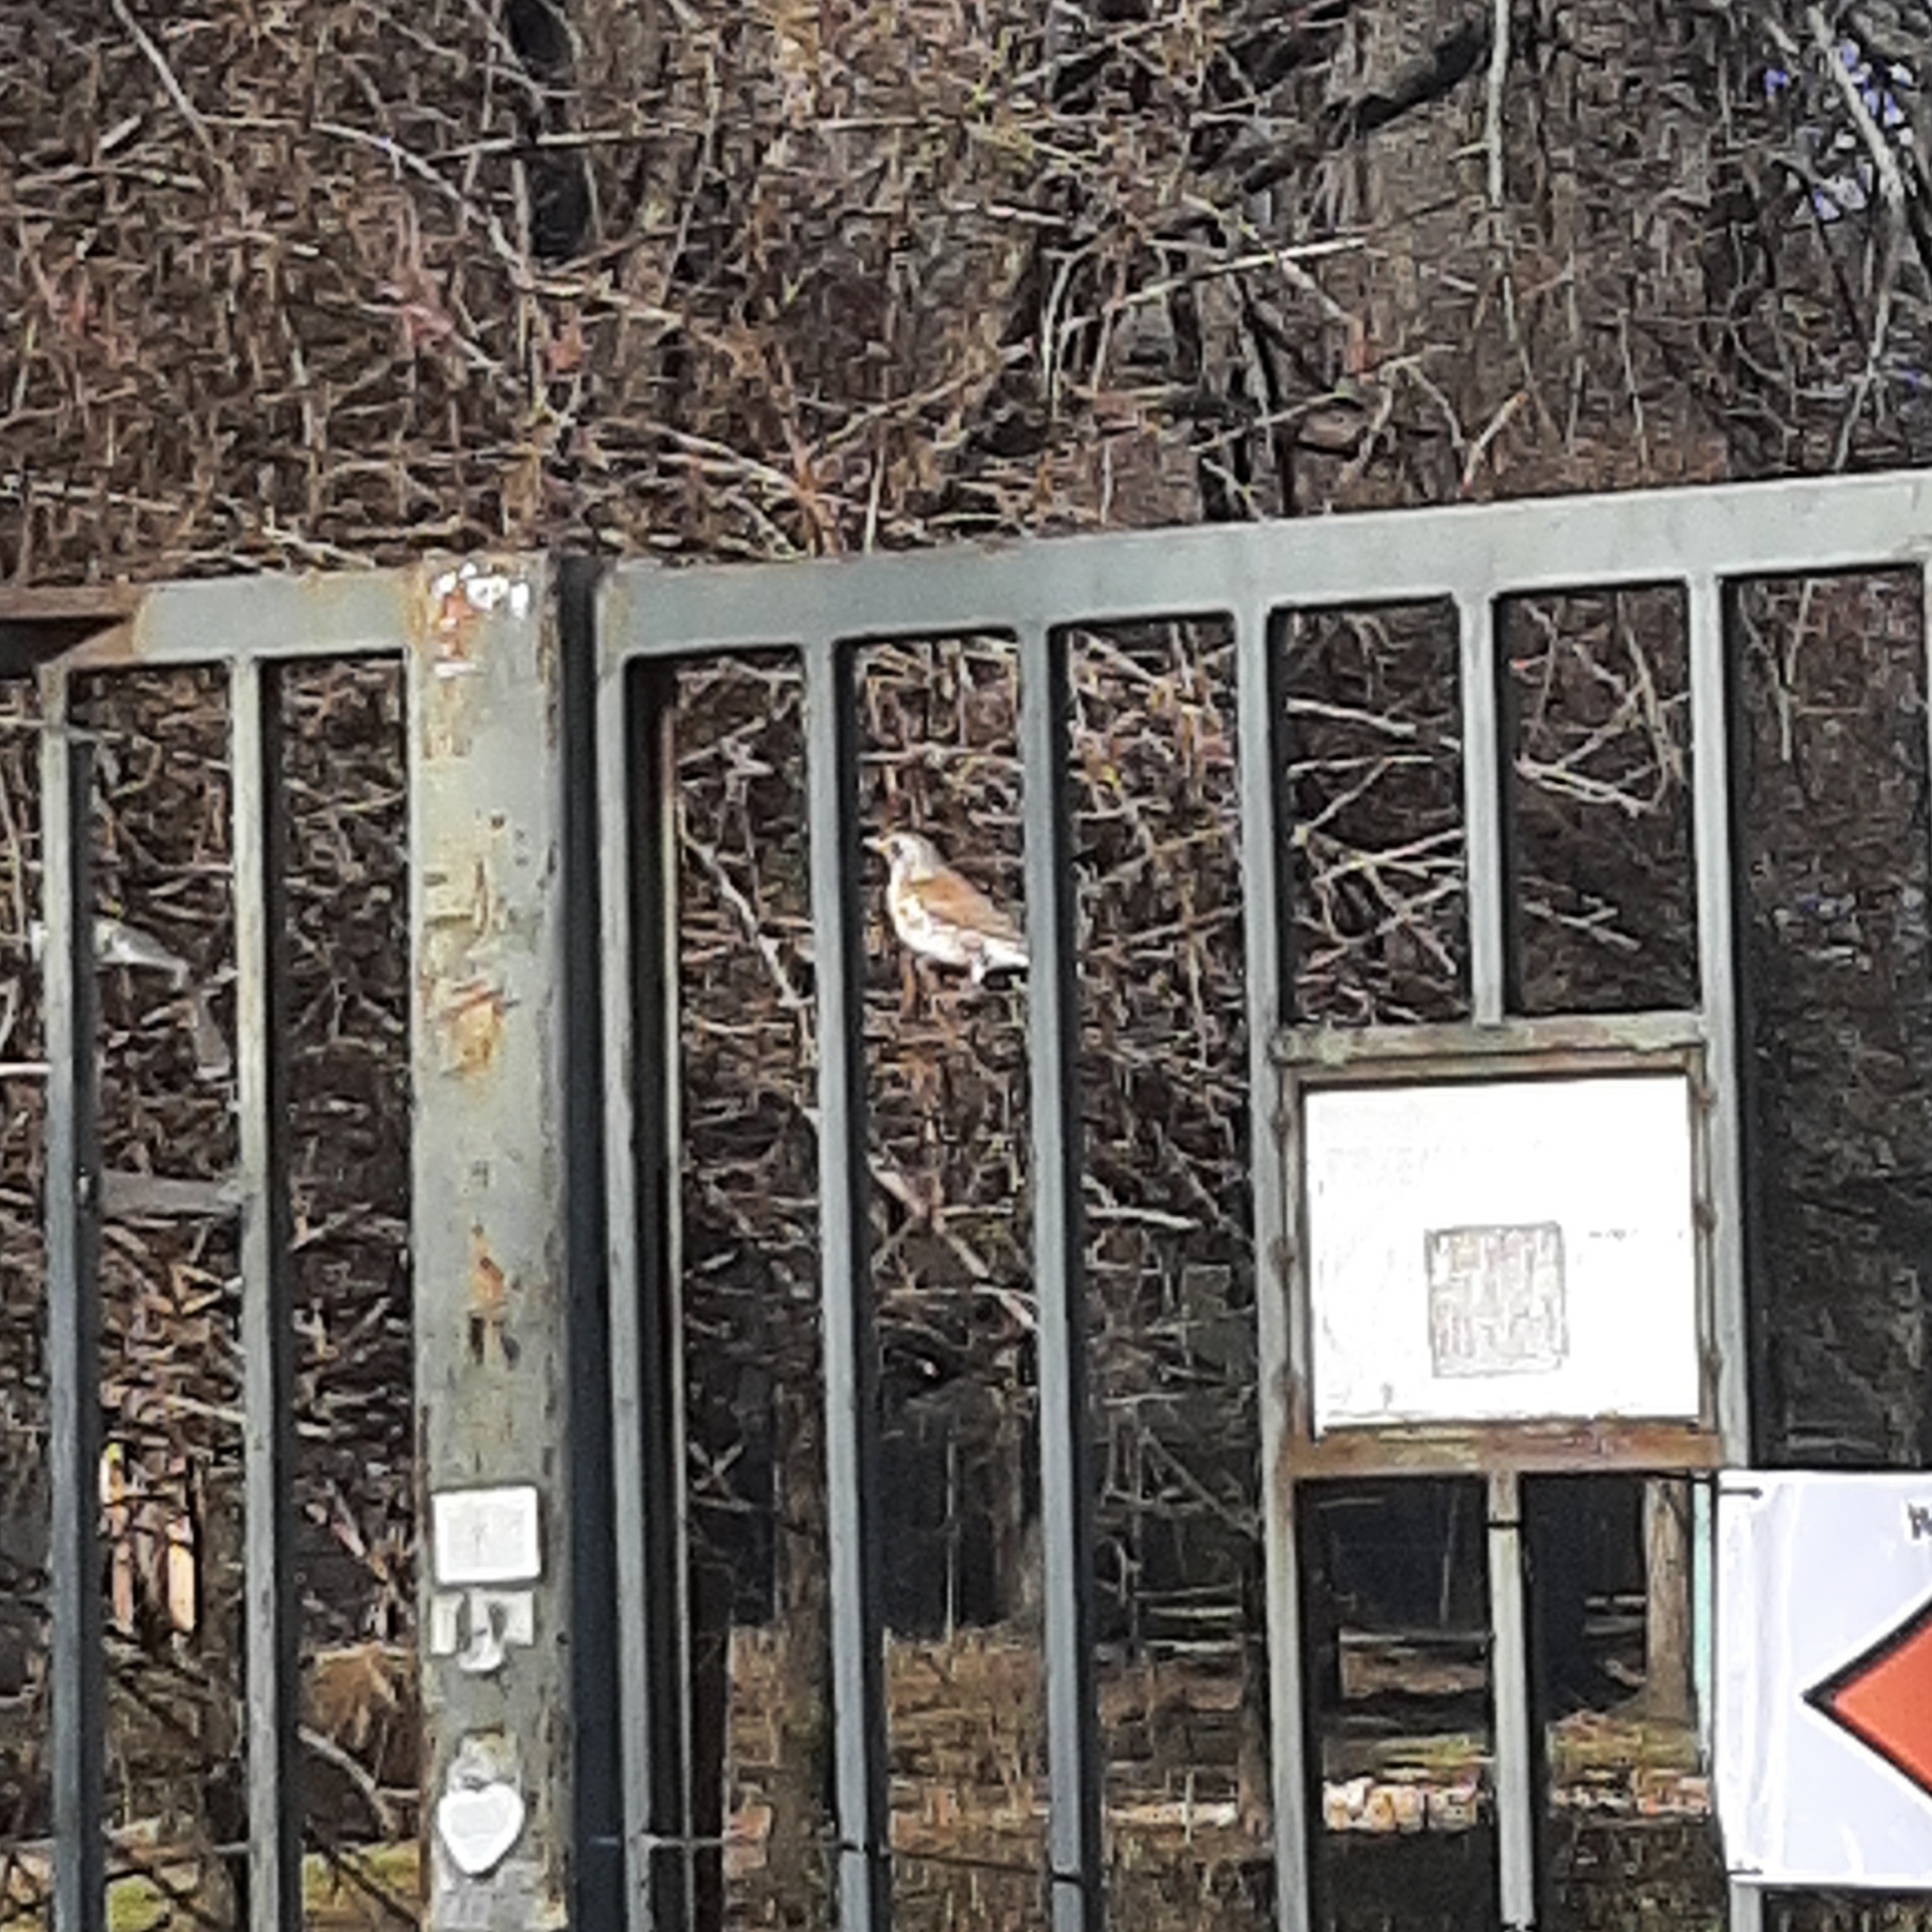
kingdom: Animalia
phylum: Chordata
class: Aves
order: Passeriformes
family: Turdidae
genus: Turdus
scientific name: Turdus pilaris
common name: Fieldfare
